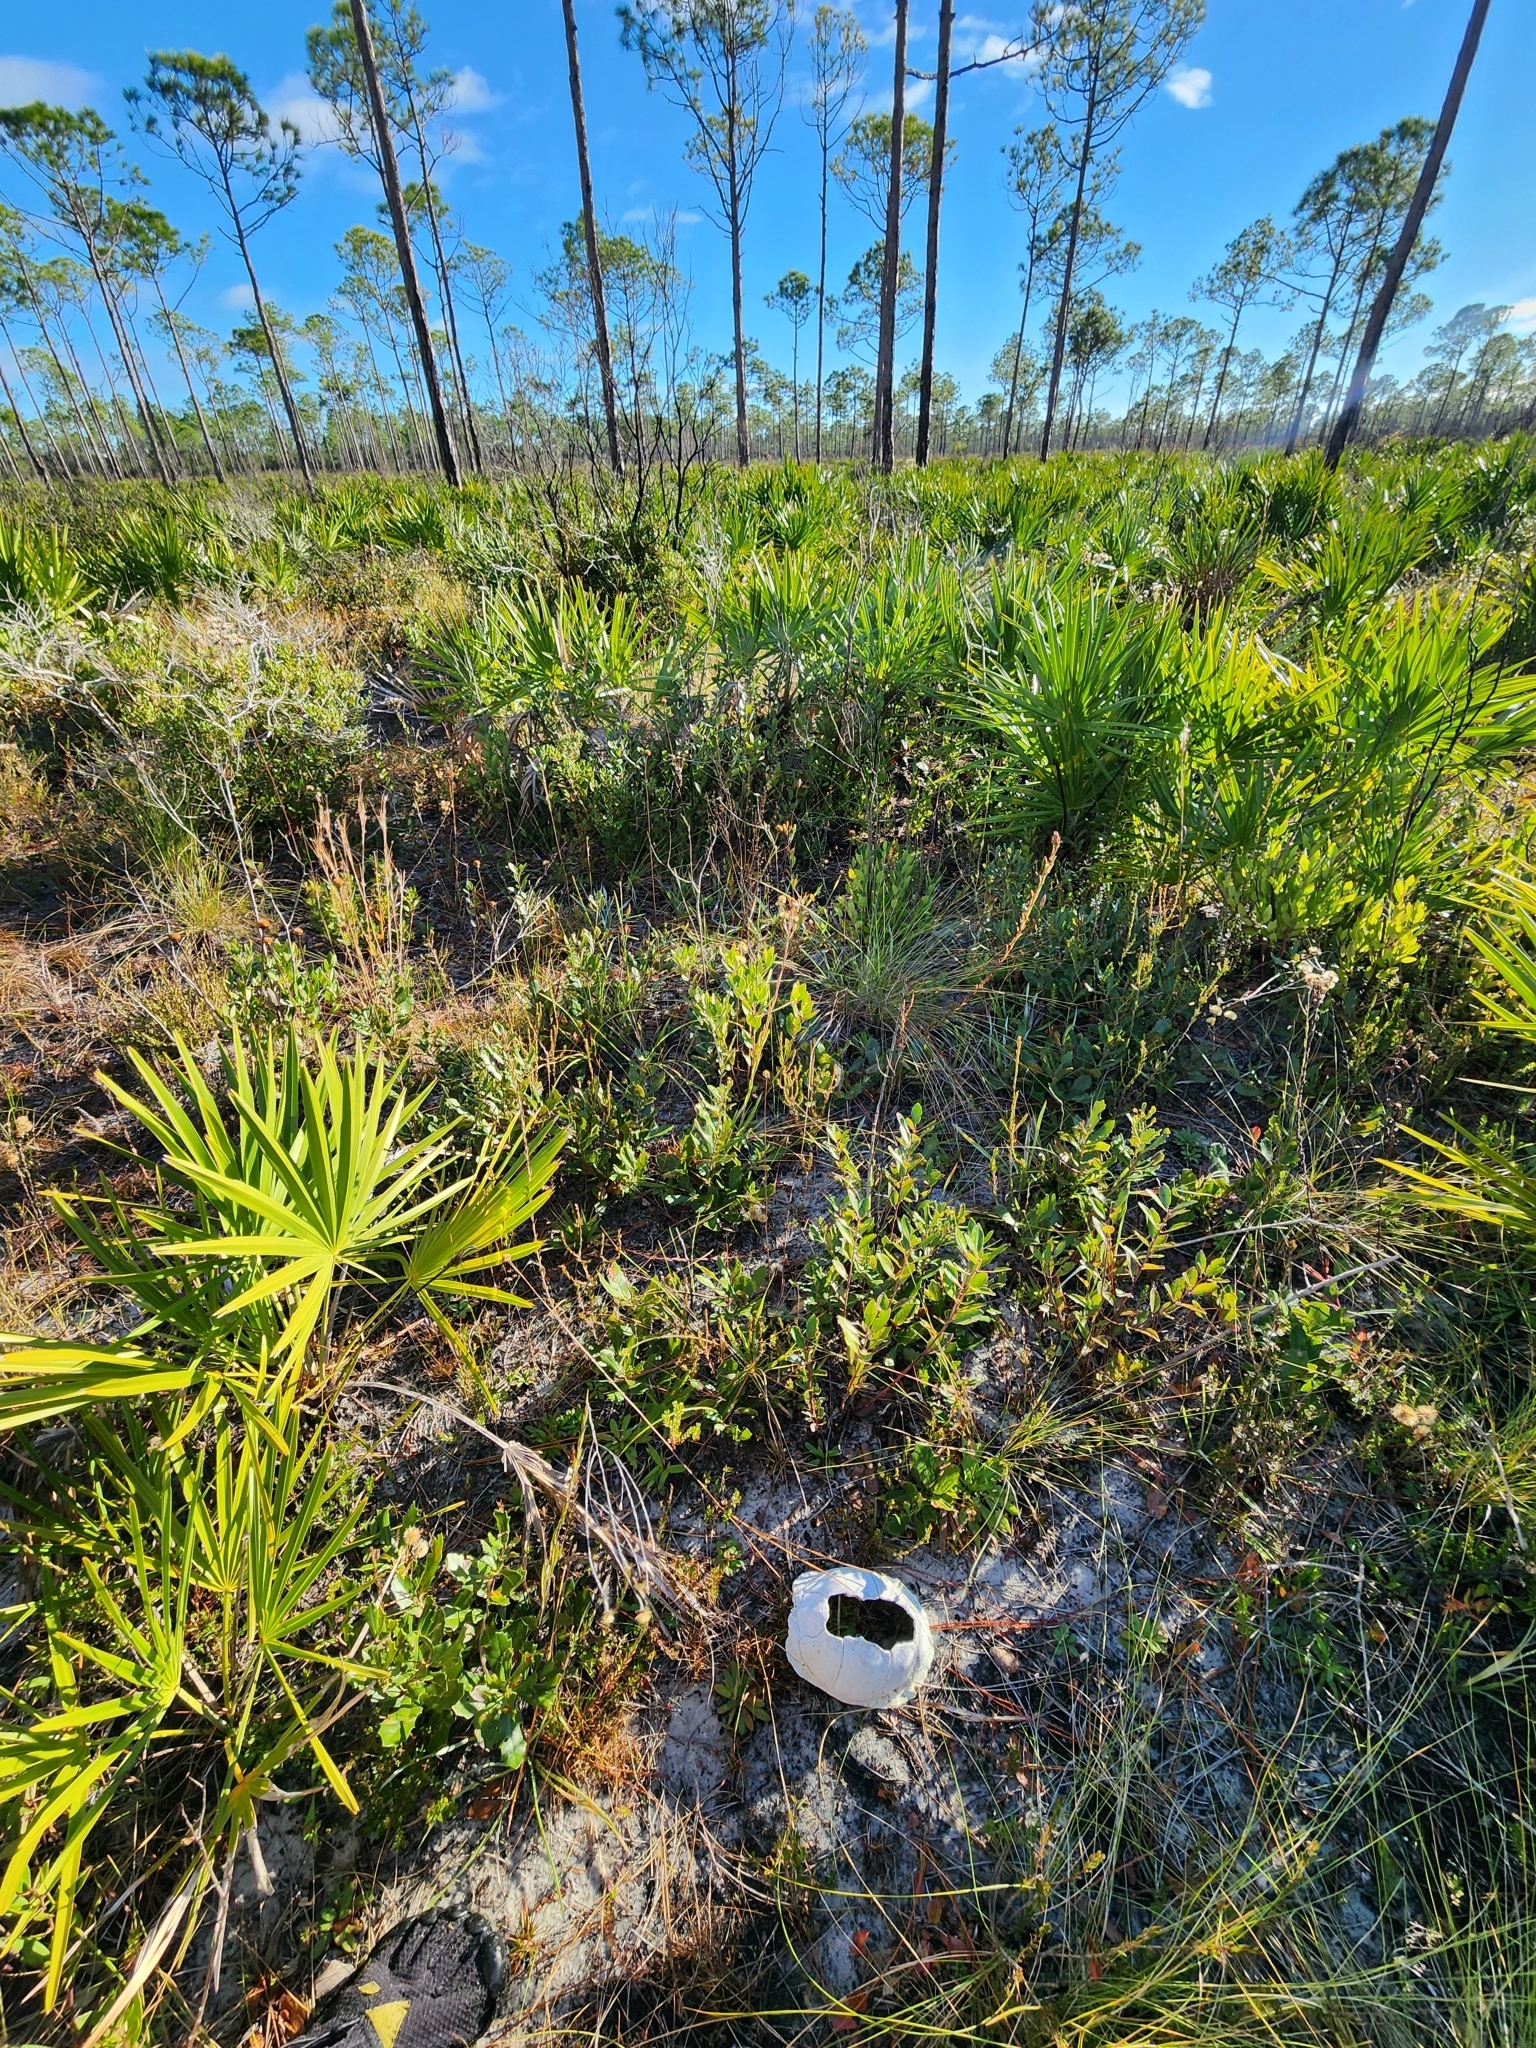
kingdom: Animalia
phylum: Chordata
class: Testudines
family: Emydidae
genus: Terrapene
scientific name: Terrapene carolina
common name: Common box turtle
